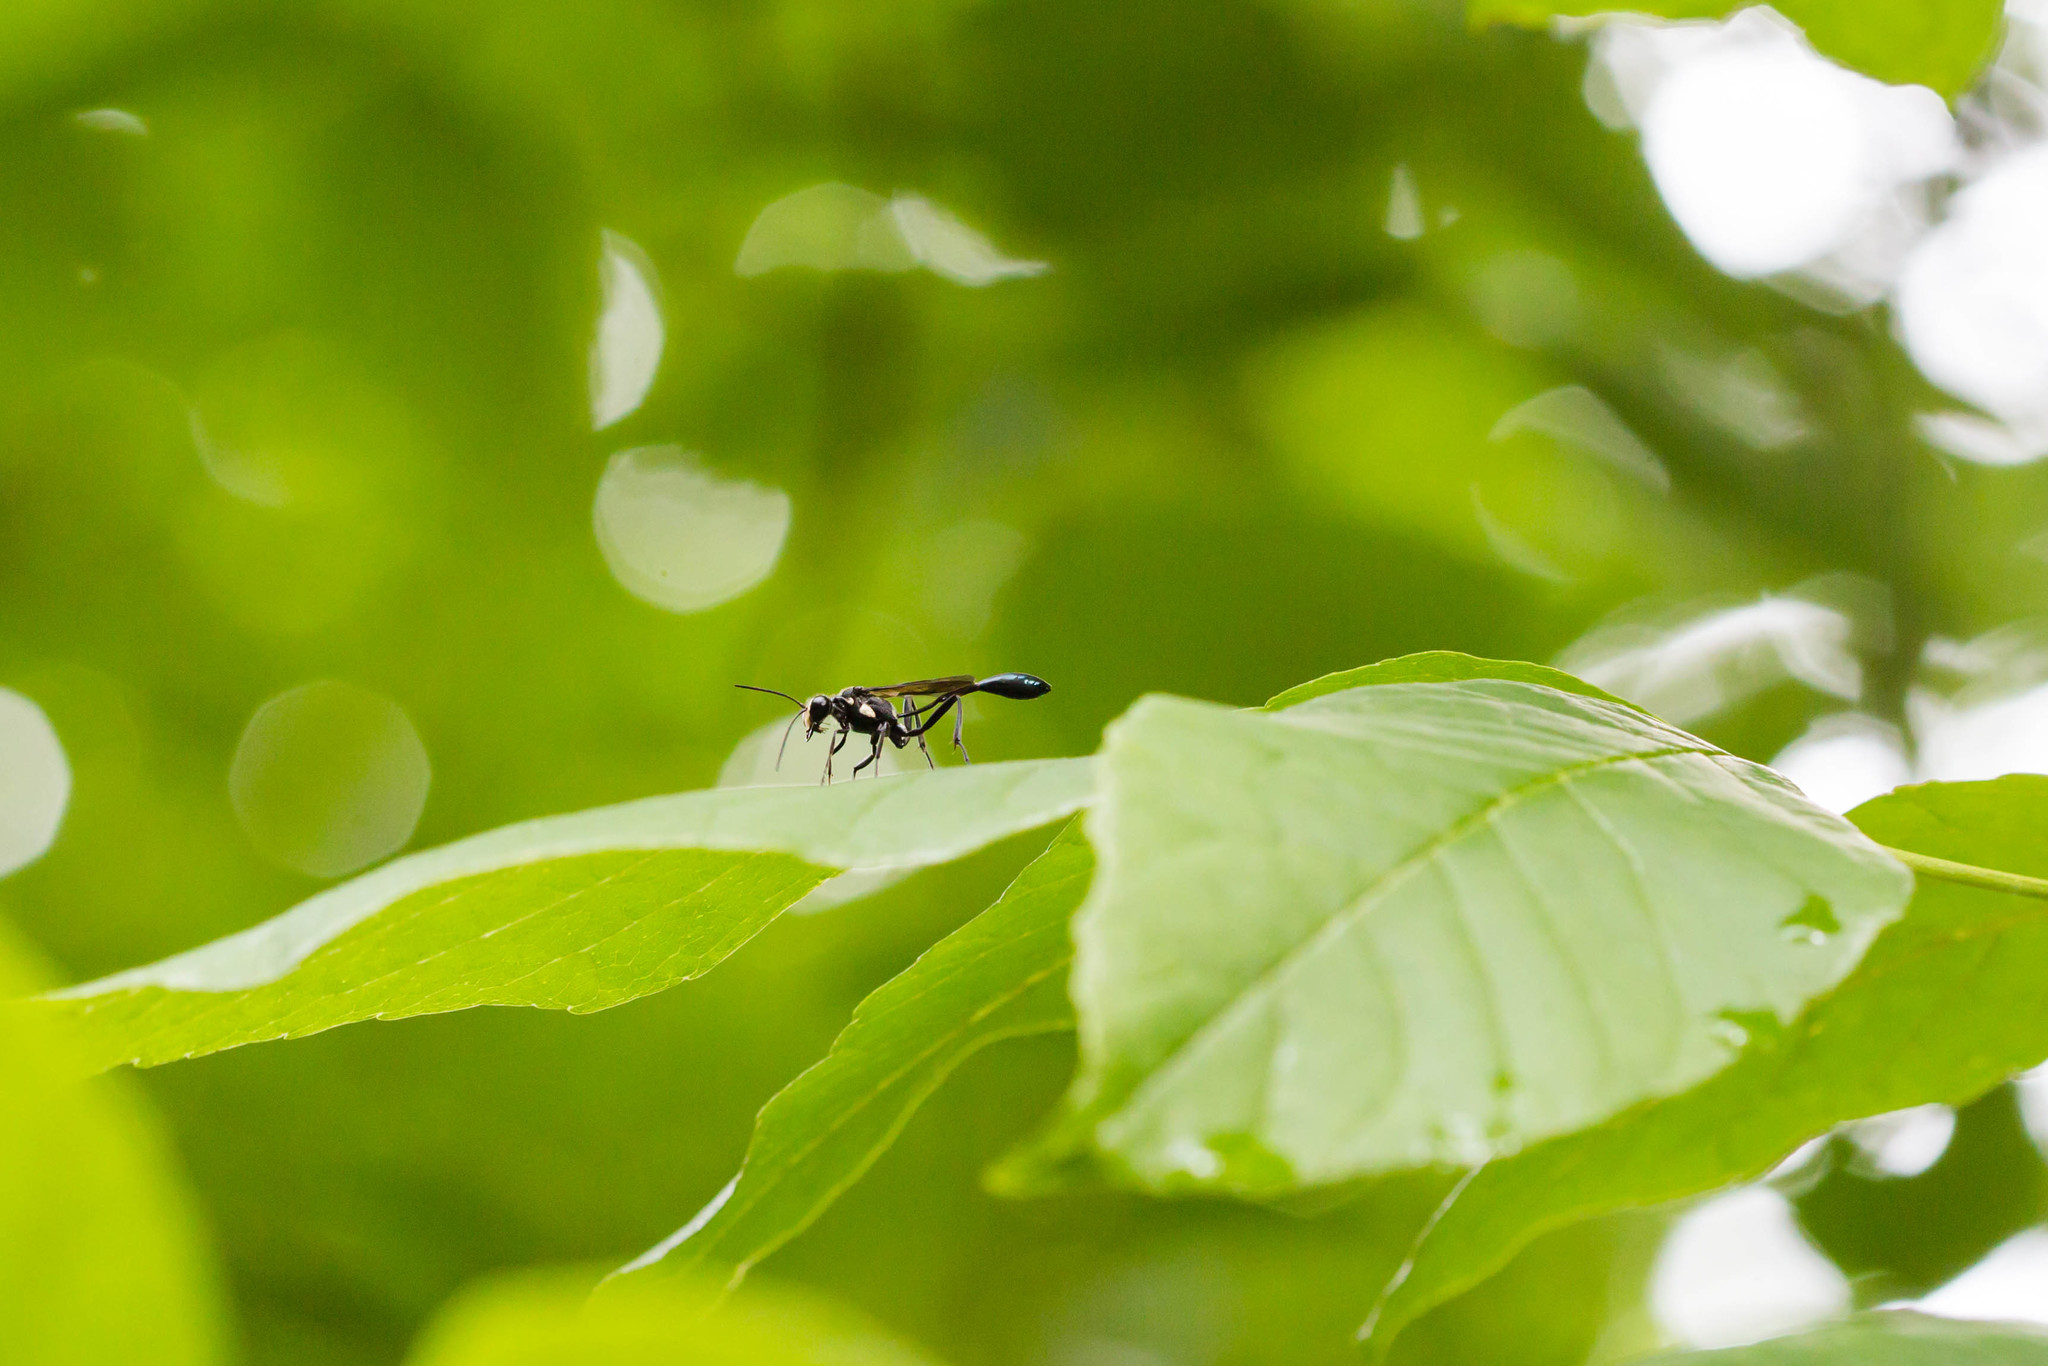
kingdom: Animalia
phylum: Arthropoda
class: Insecta
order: Hymenoptera
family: Sphecidae
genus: Eremnophila
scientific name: Eremnophila aureonotata
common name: Gold-marked thread-waisted wasp
